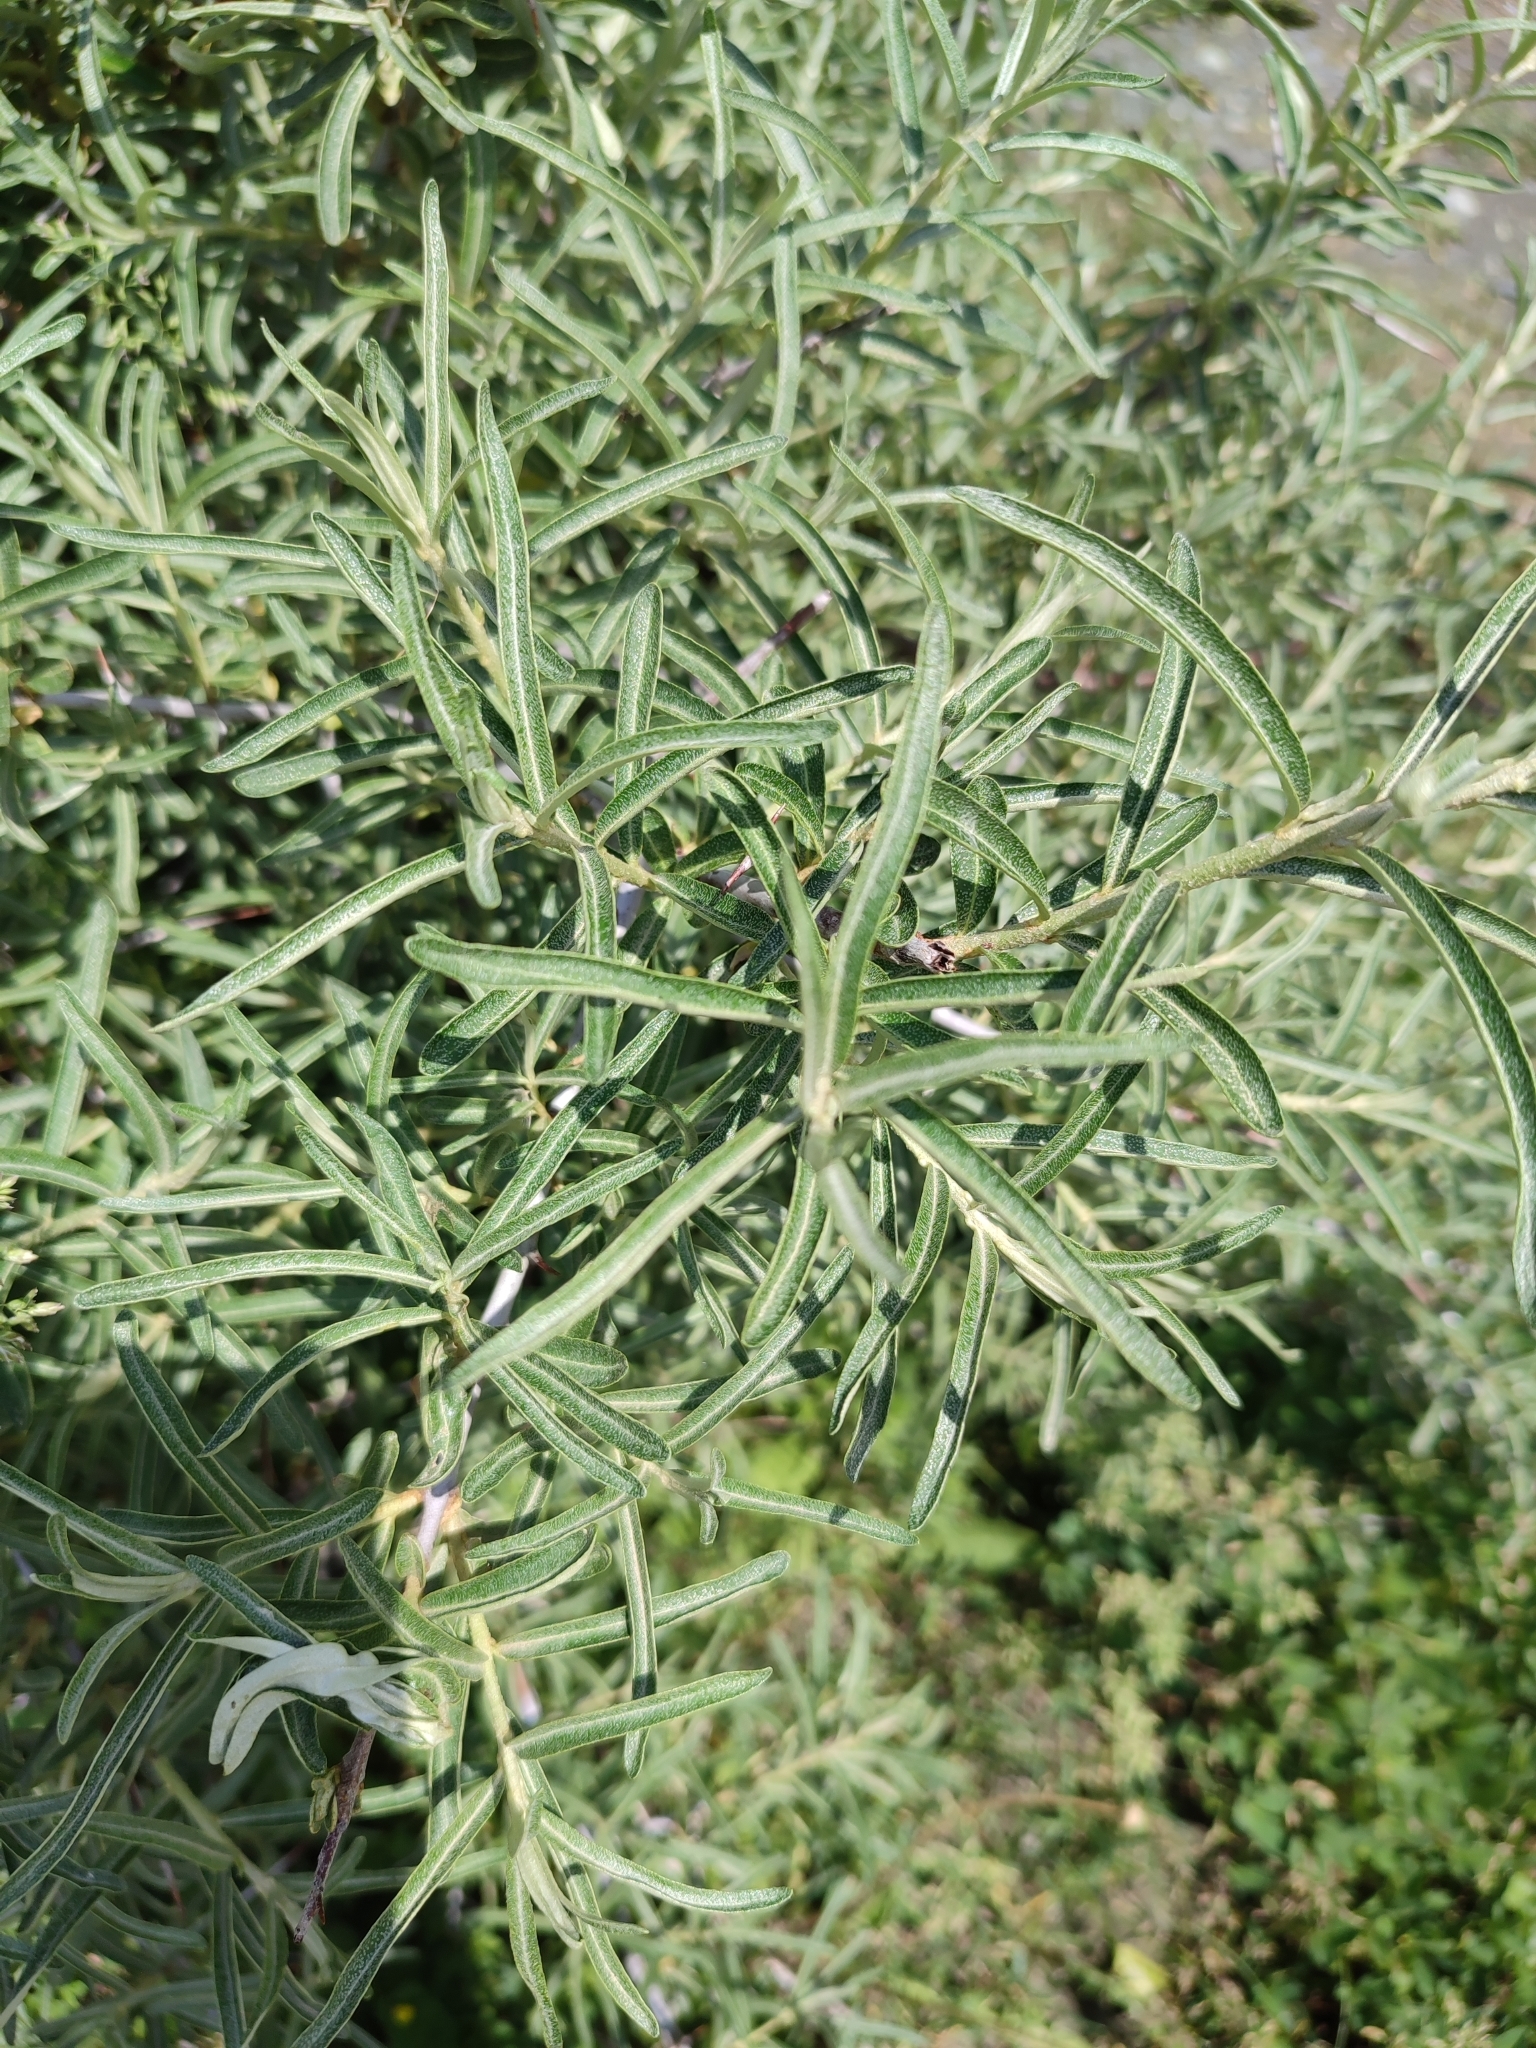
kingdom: Plantae
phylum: Tracheophyta
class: Magnoliopsida
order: Rosales
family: Elaeagnaceae
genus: Hippophae
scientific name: Hippophae rhamnoides
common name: Sea-buckthorn
